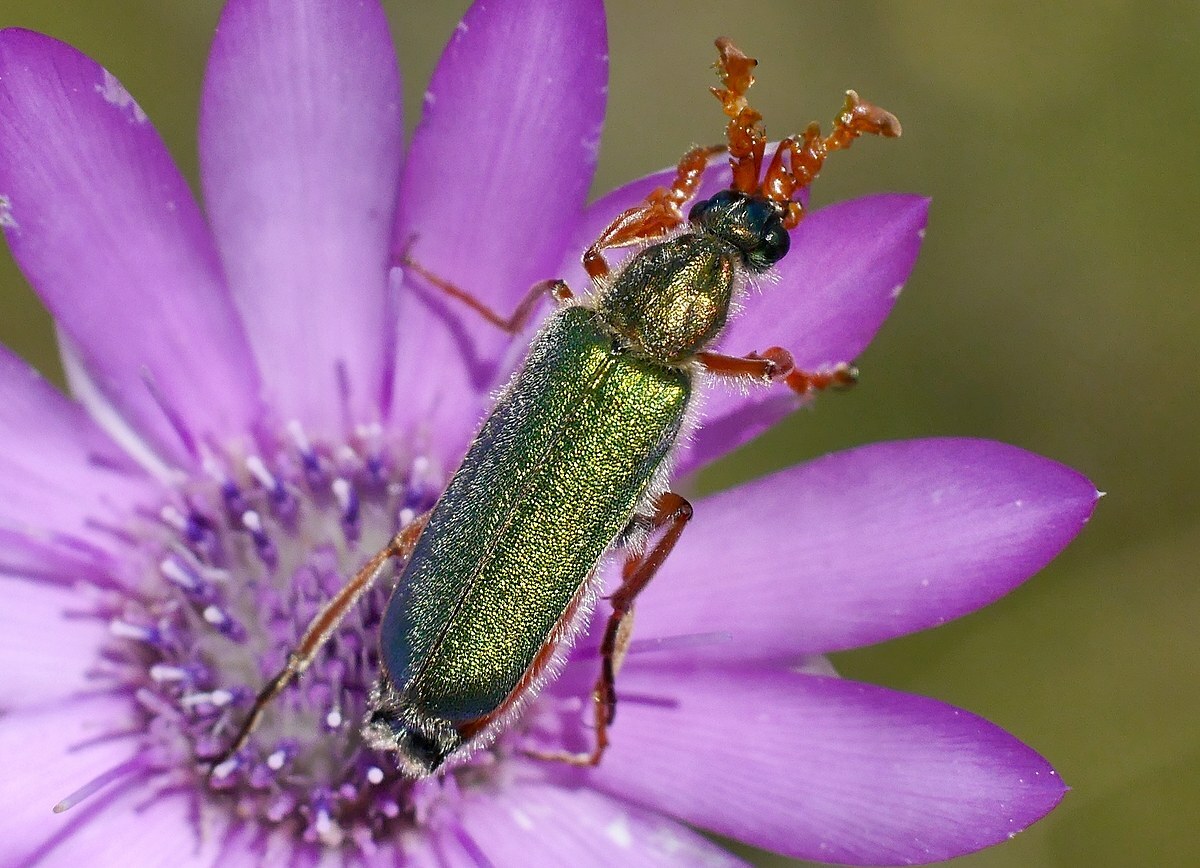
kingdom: Animalia
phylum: Arthropoda
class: Insecta
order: Coleoptera
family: Meloidae
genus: Cerocoma
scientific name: Cerocoma schreberi
